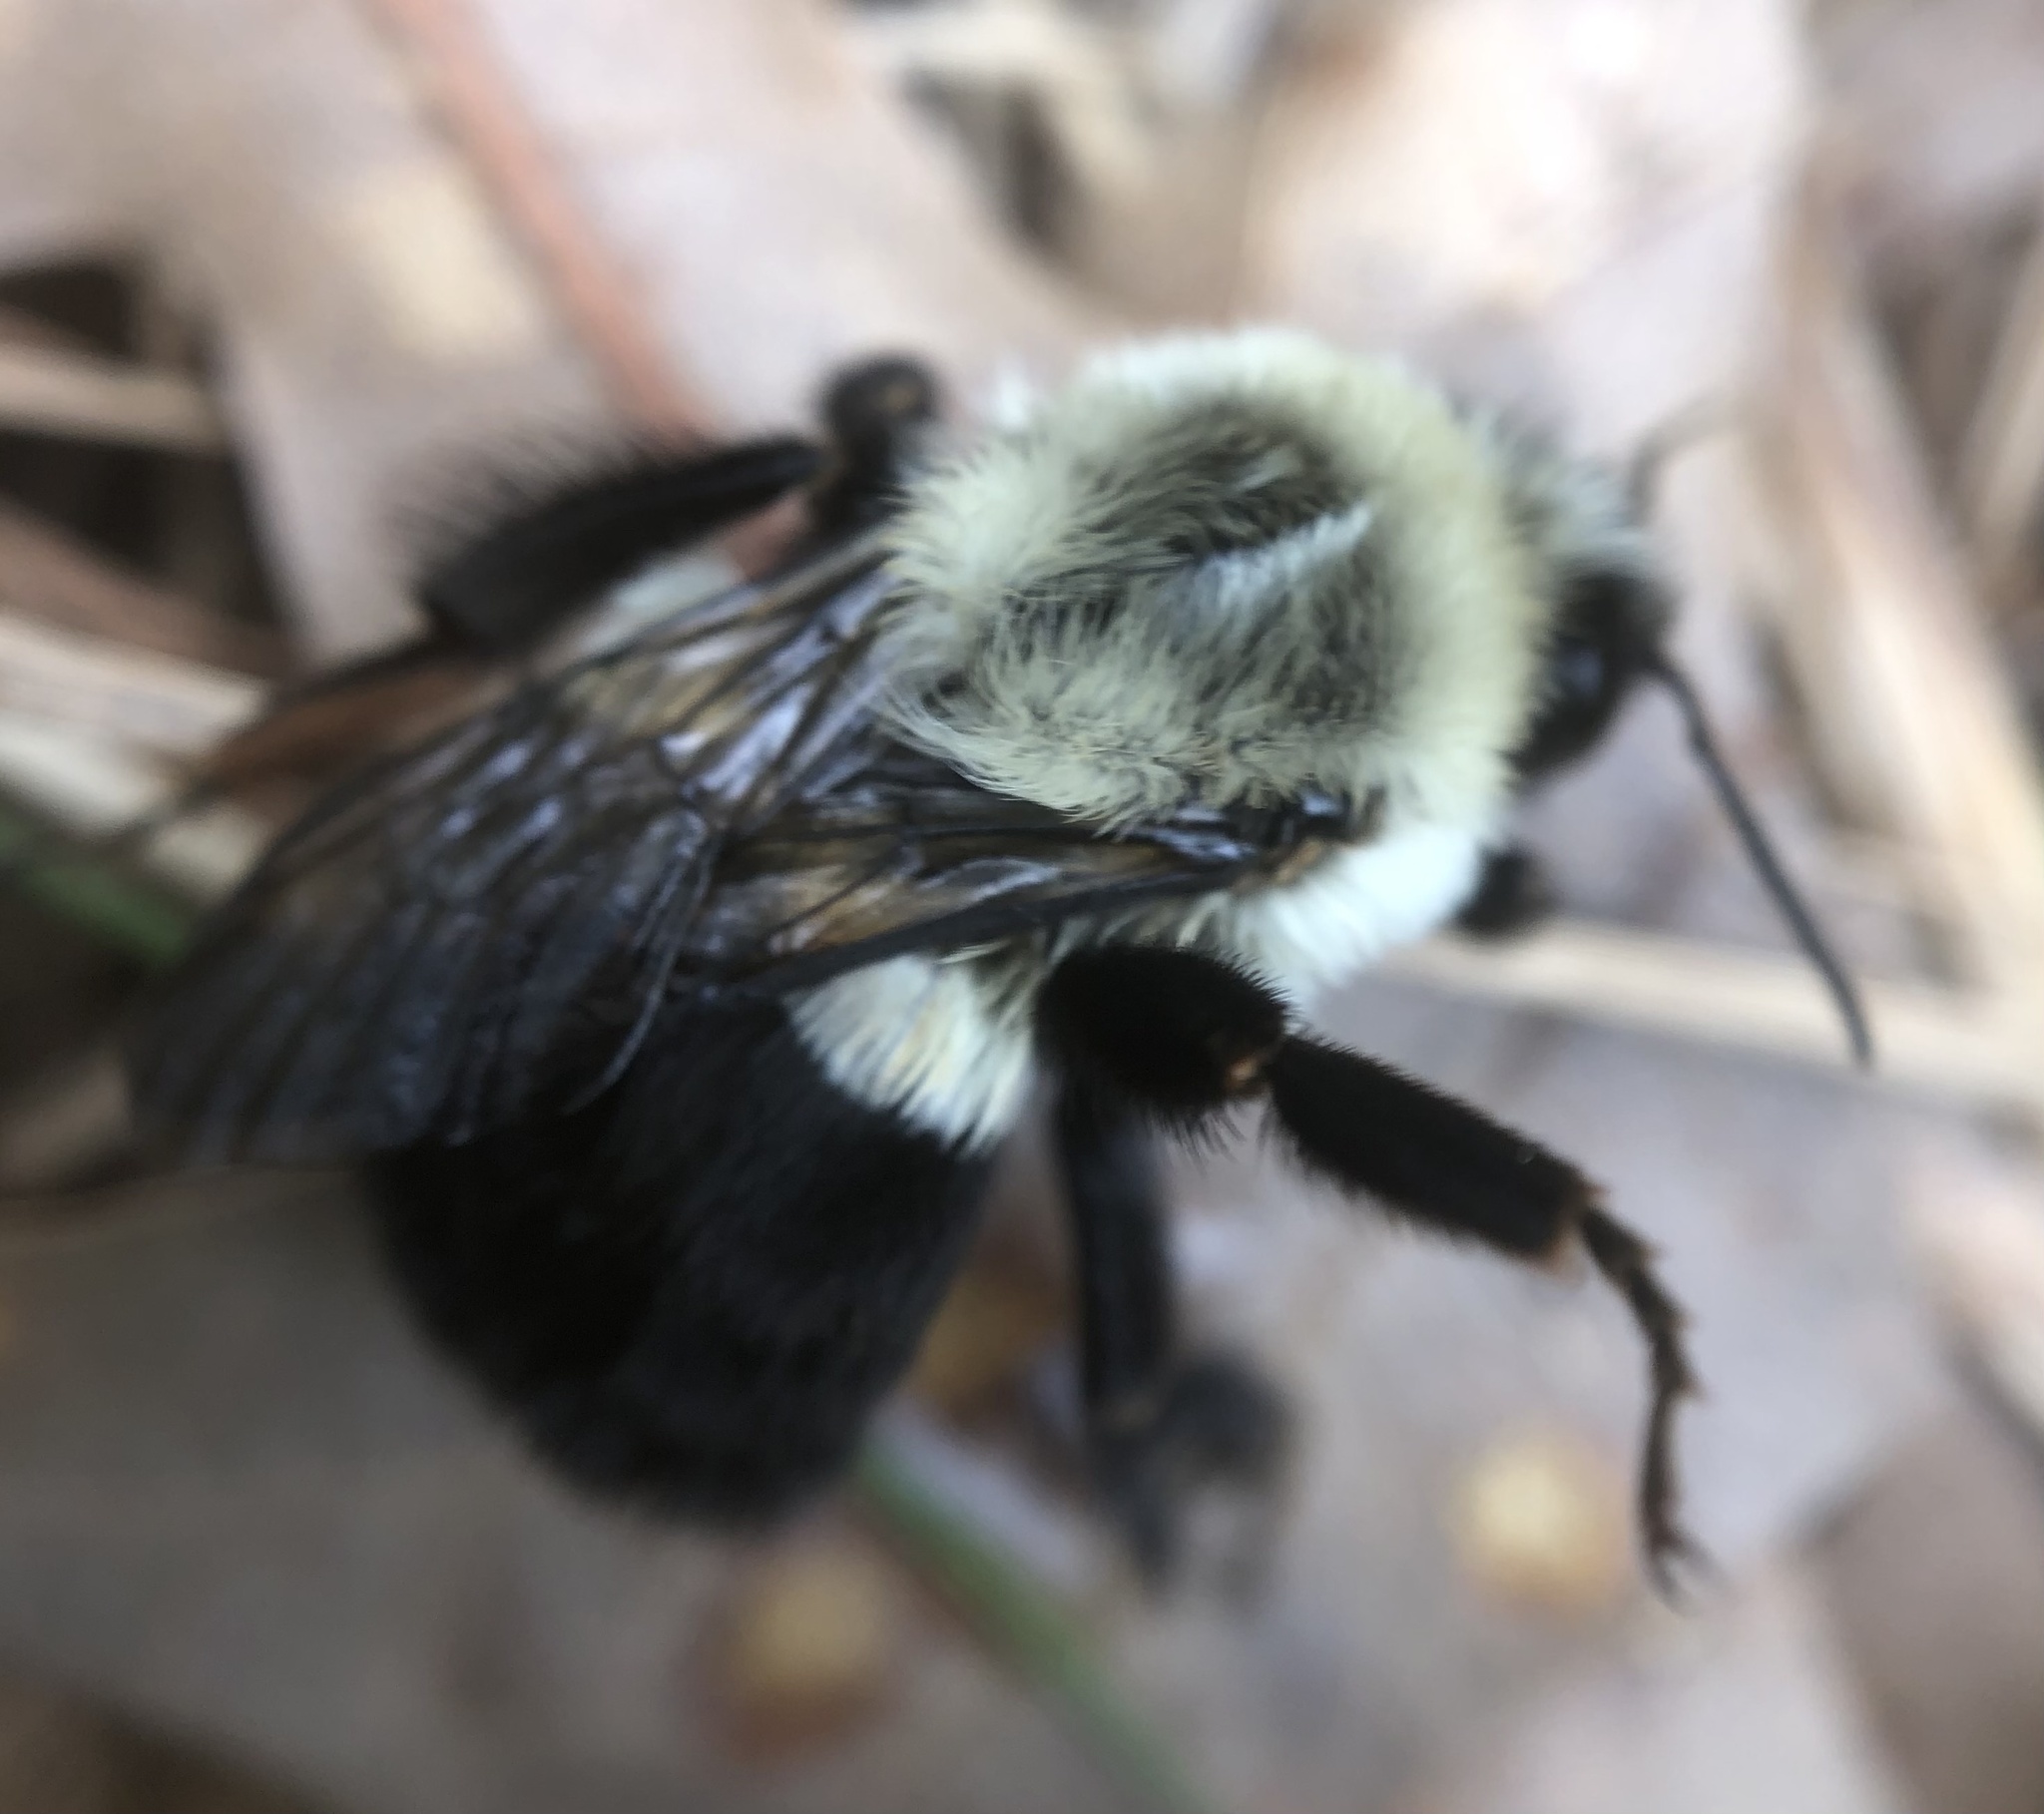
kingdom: Animalia
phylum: Arthropoda
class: Insecta
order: Hymenoptera
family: Apidae
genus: Bombus
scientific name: Bombus impatiens
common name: Common eastern bumble bee
